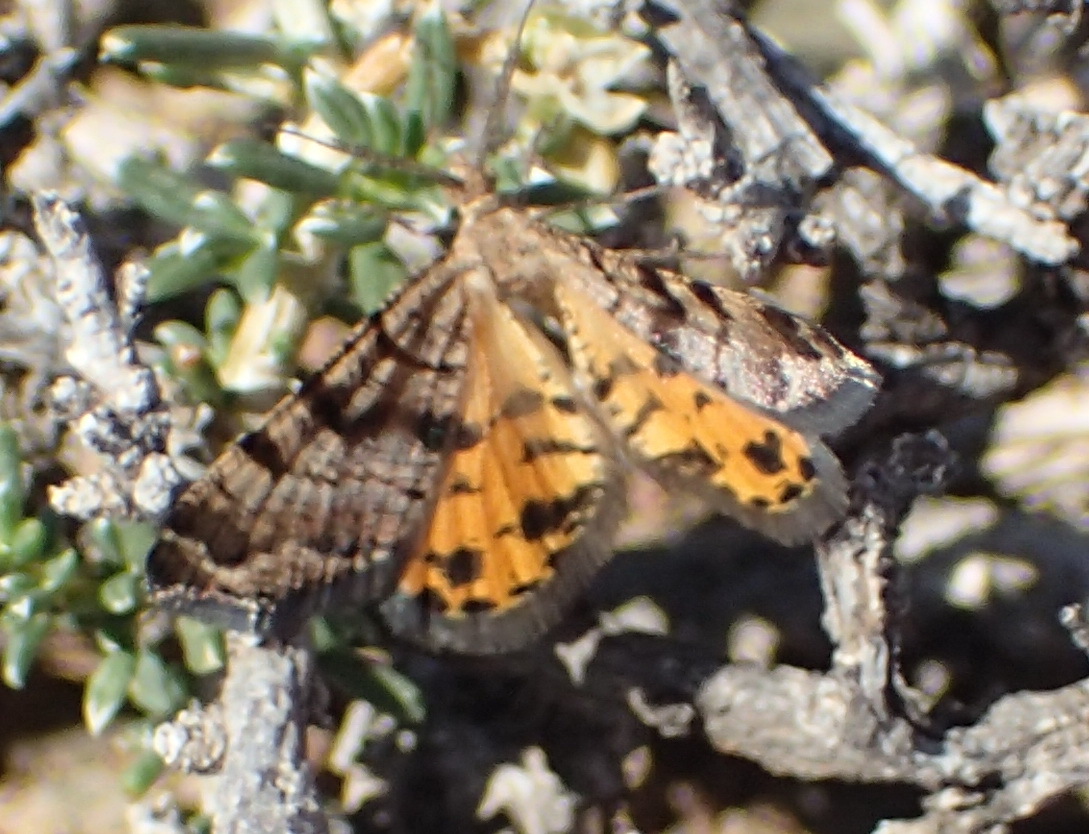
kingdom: Animalia
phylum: Arthropoda
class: Insecta
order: Lepidoptera
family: Geometridae
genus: Isturgia
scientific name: Isturgia focularia
